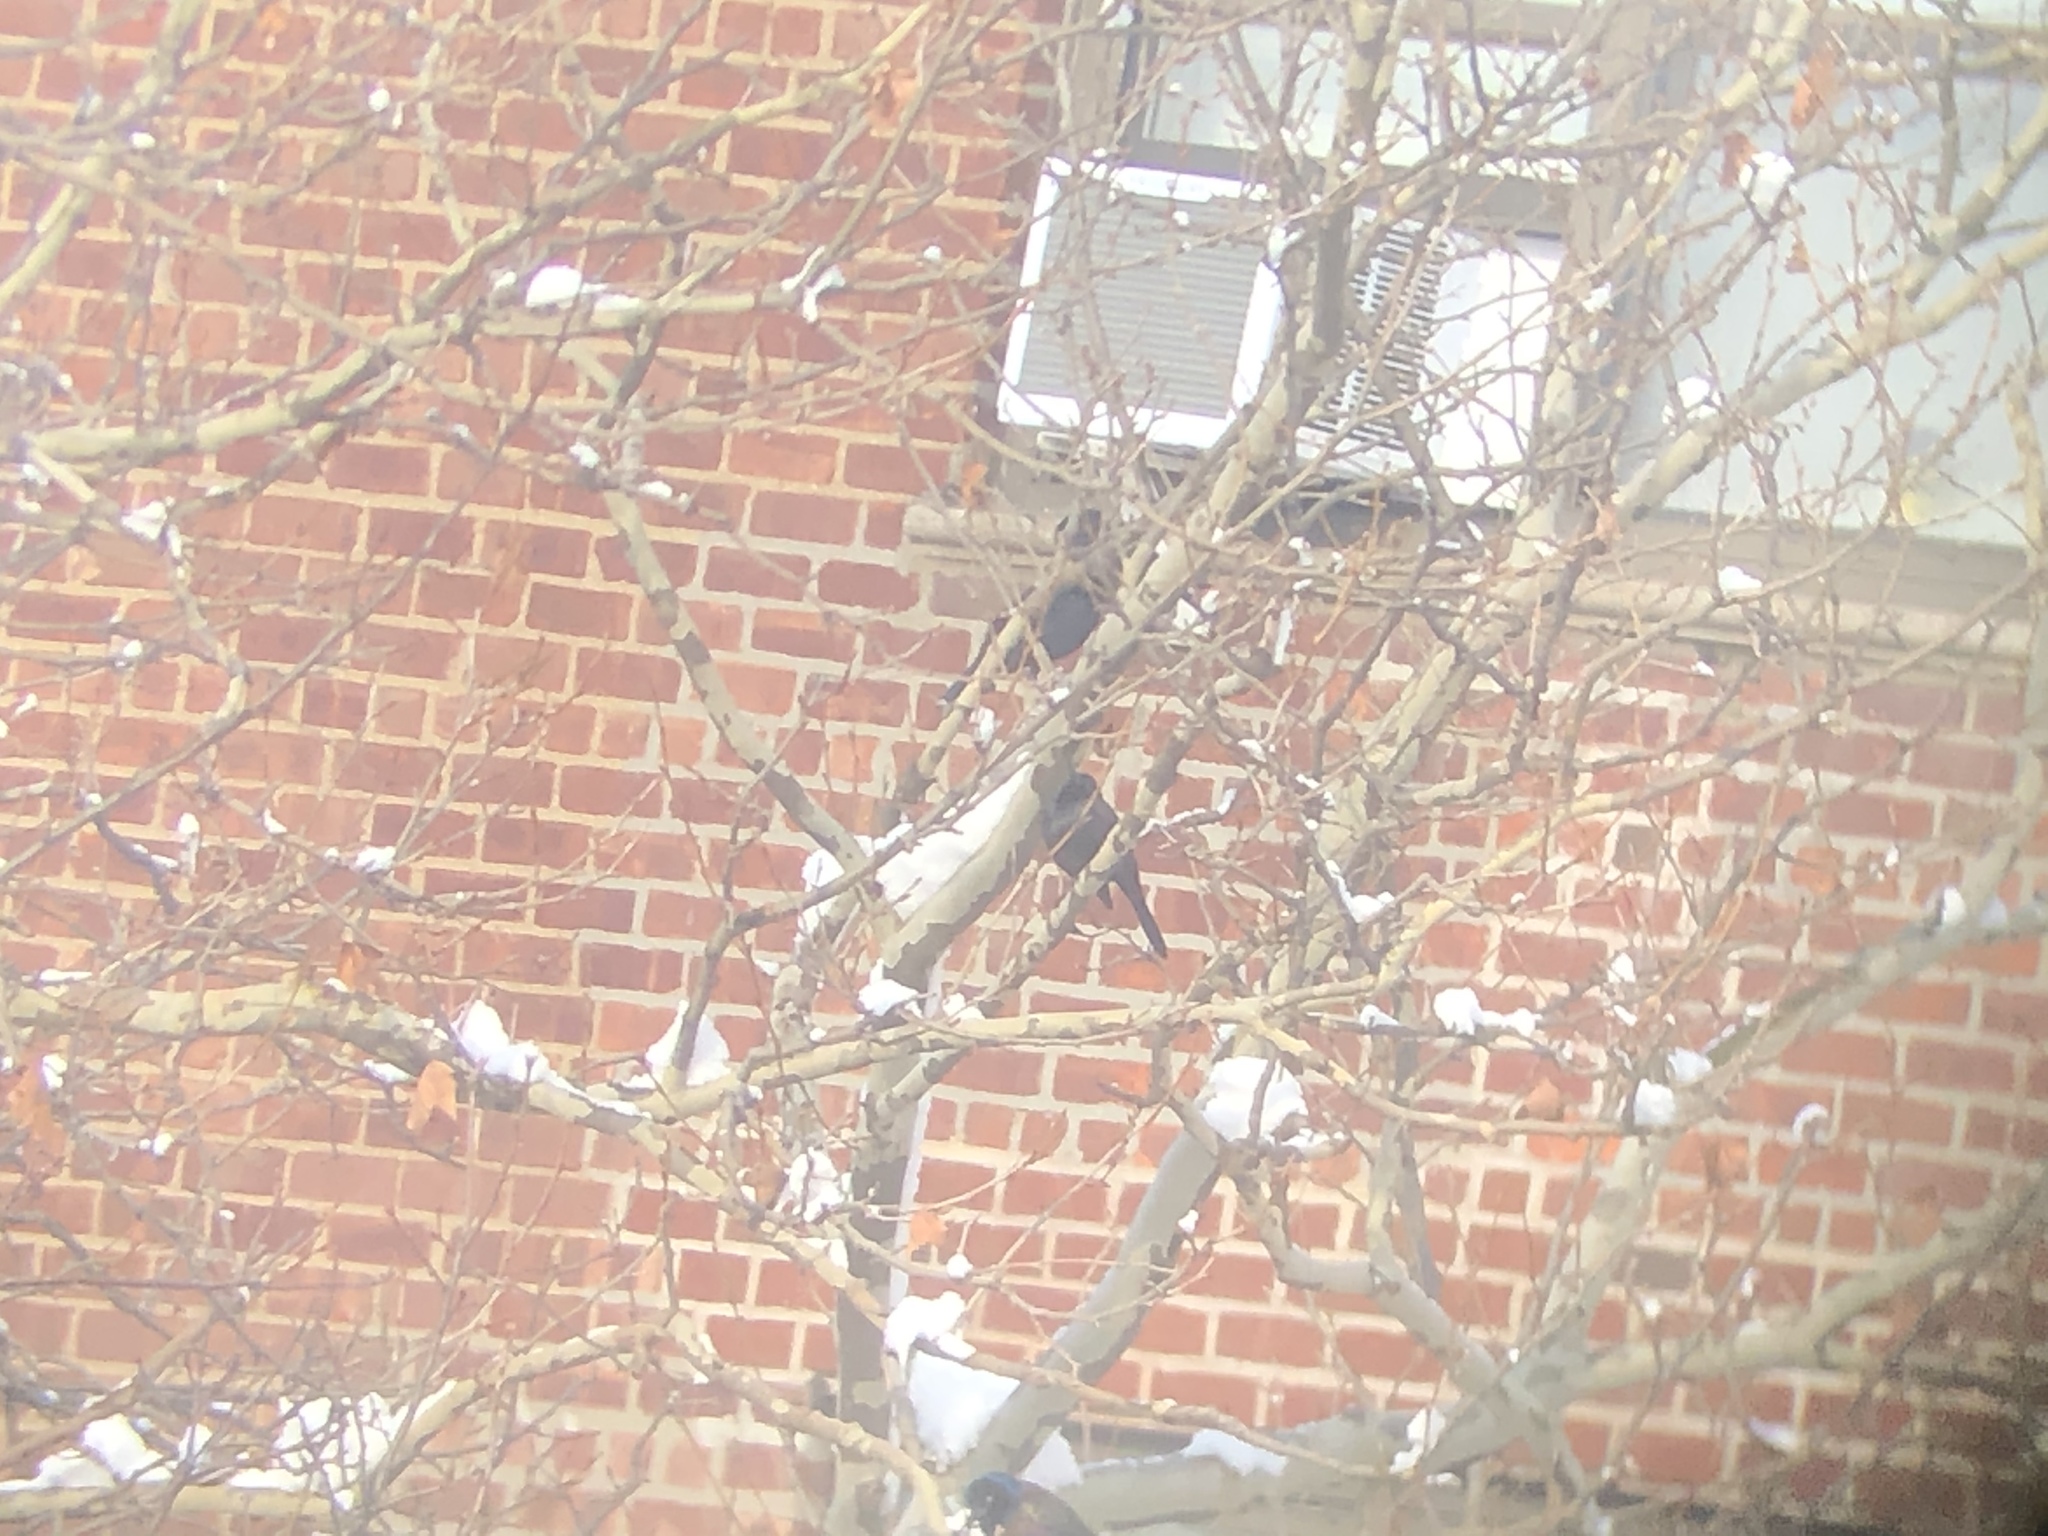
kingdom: Animalia
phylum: Chordata
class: Aves
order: Passeriformes
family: Icteridae
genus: Quiscalus
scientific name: Quiscalus quiscula
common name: Common grackle
